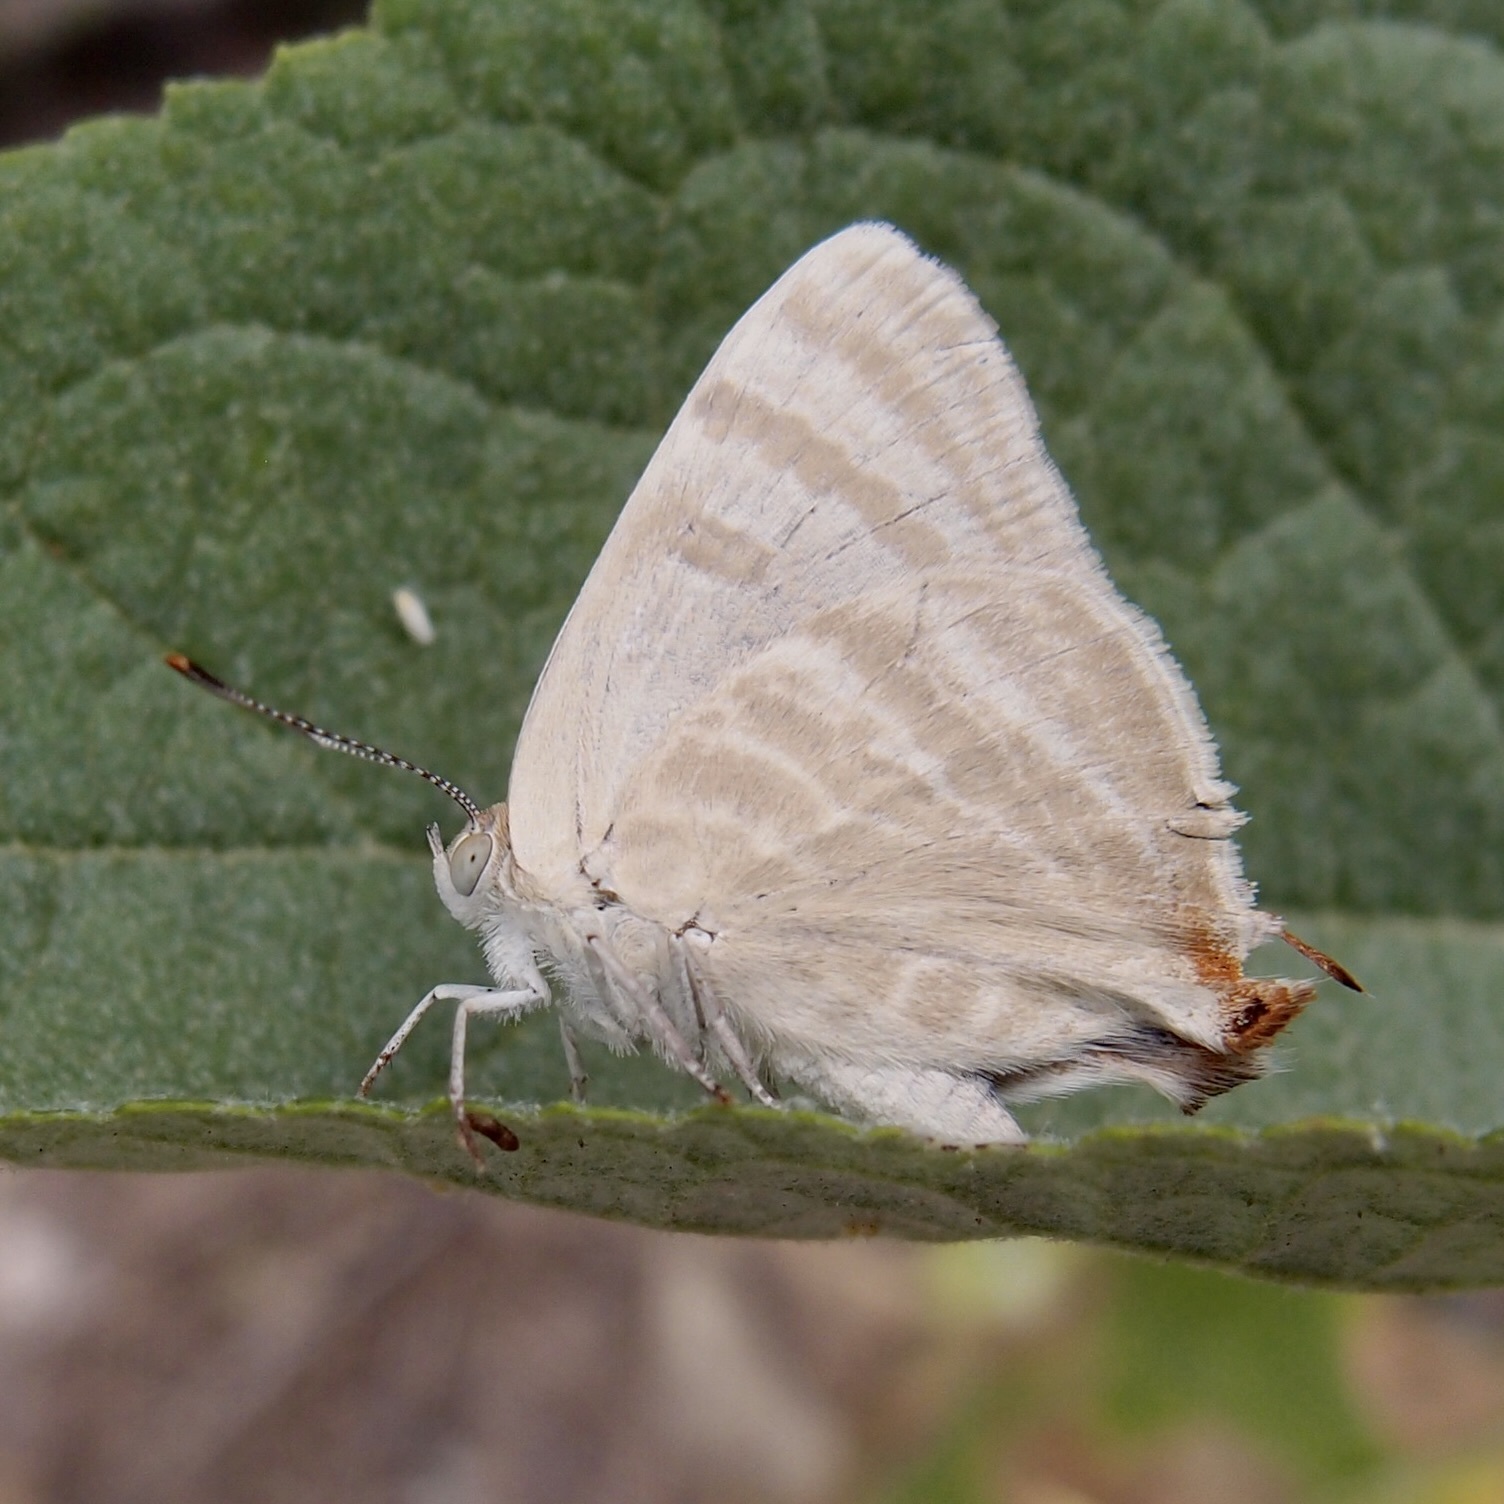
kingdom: Animalia
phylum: Arthropoda
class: Insecta
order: Lepidoptera
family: Lycaenidae
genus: Dolymorpha
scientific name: Dolymorpha jada
